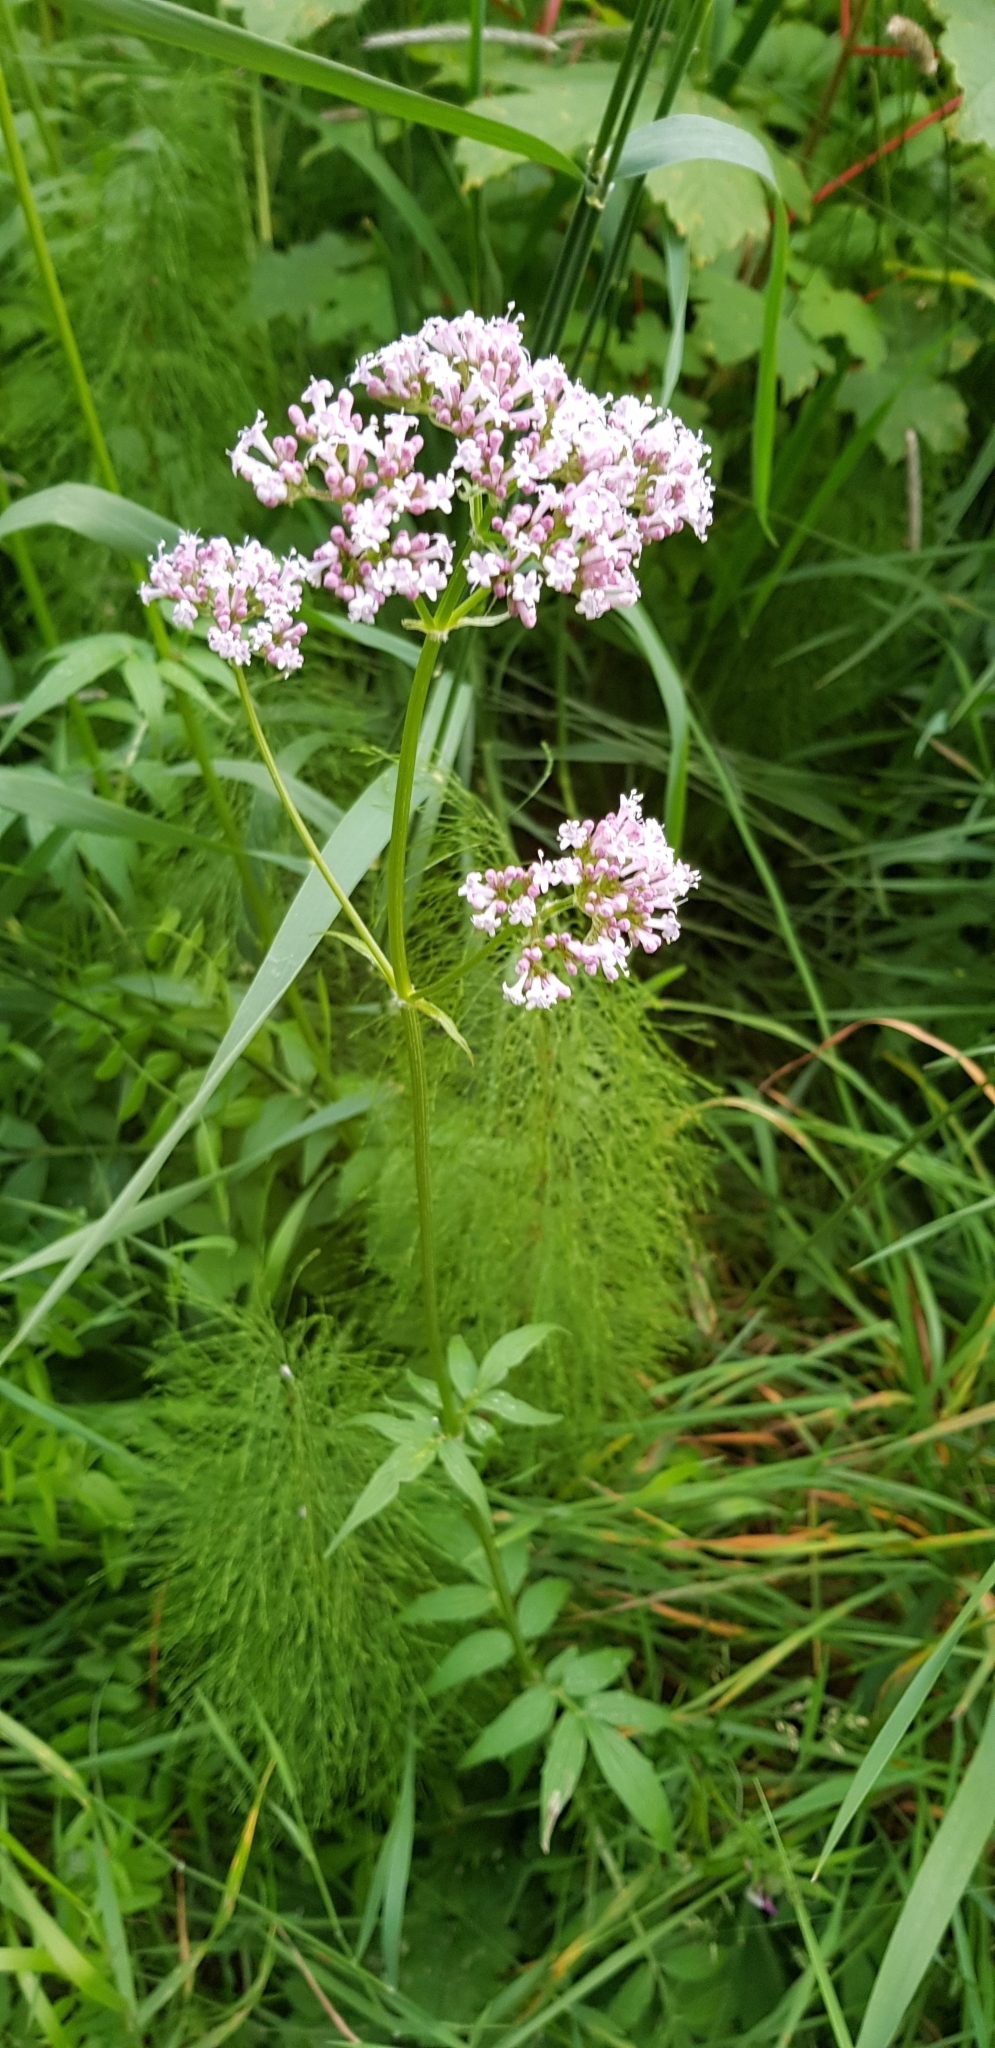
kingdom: Plantae
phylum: Tracheophyta
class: Magnoliopsida
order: Dipsacales
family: Caprifoliaceae
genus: Valeriana
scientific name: Valeriana officinalis
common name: Common valerian
